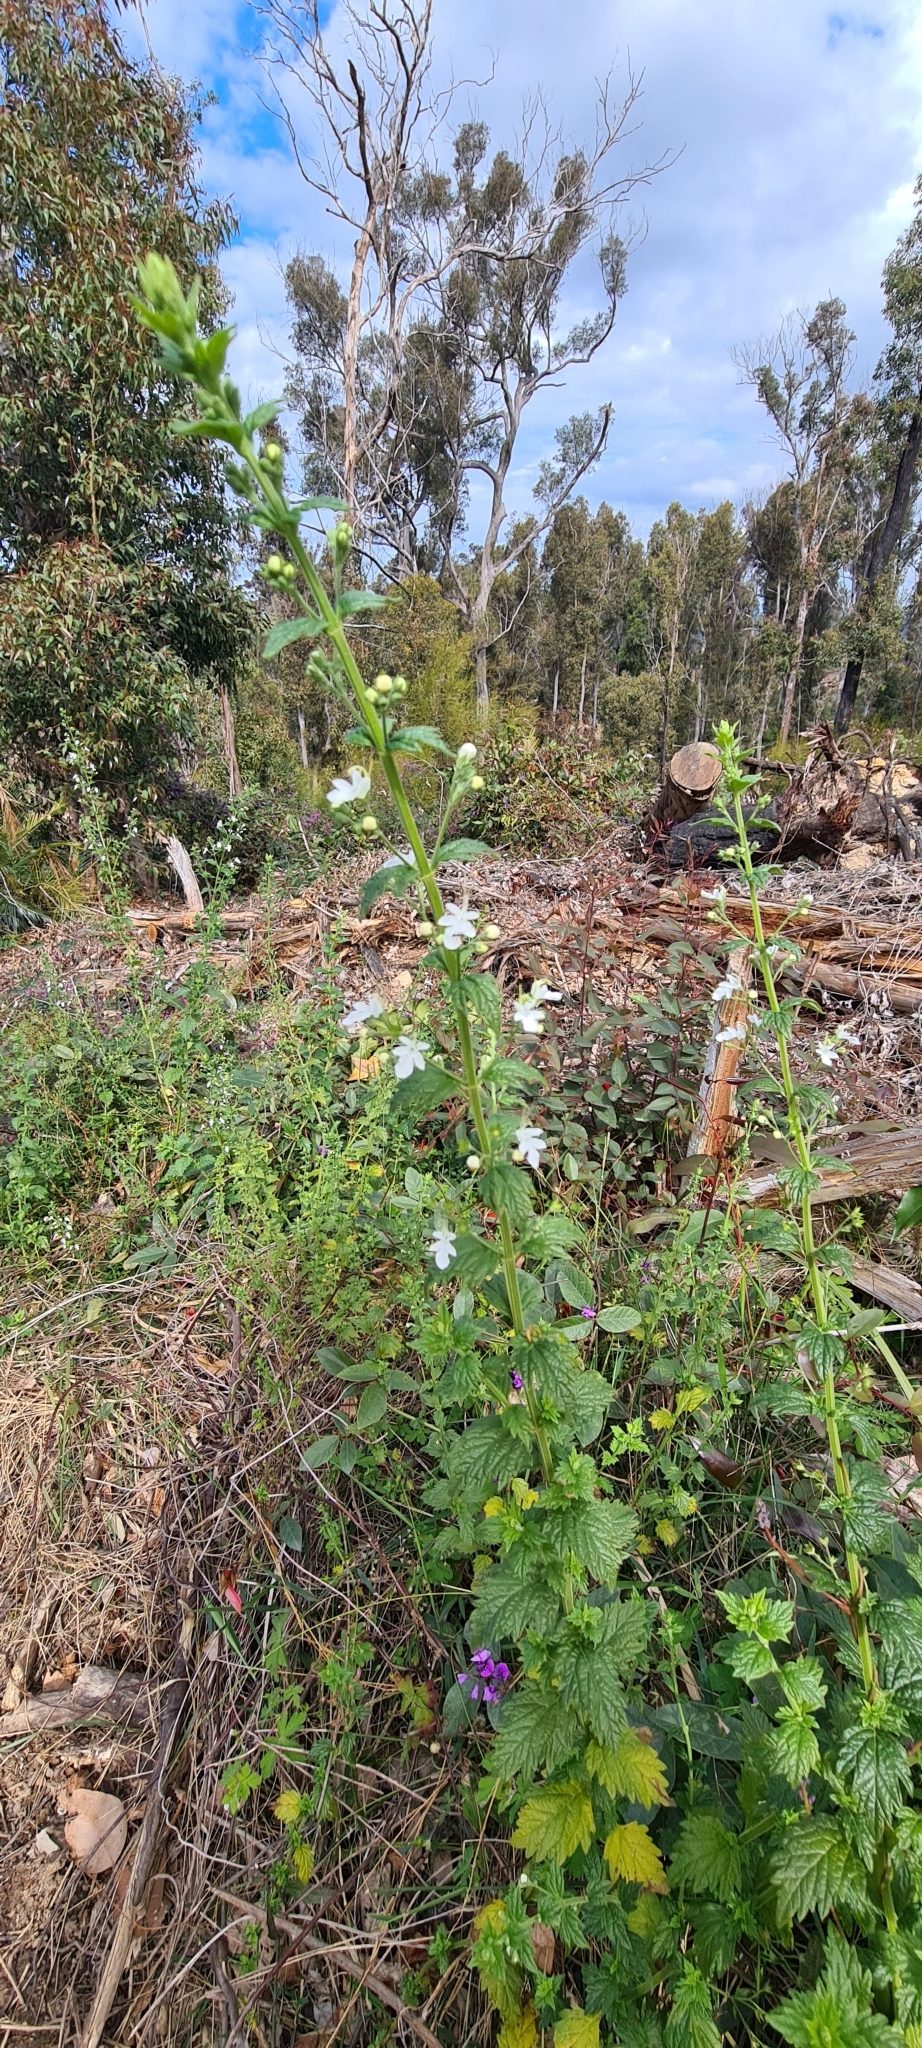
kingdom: Plantae
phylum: Tracheophyta
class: Magnoliopsida
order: Lamiales
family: Lamiaceae
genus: Teucrium
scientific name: Teucrium corymbosum
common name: Forest germander
